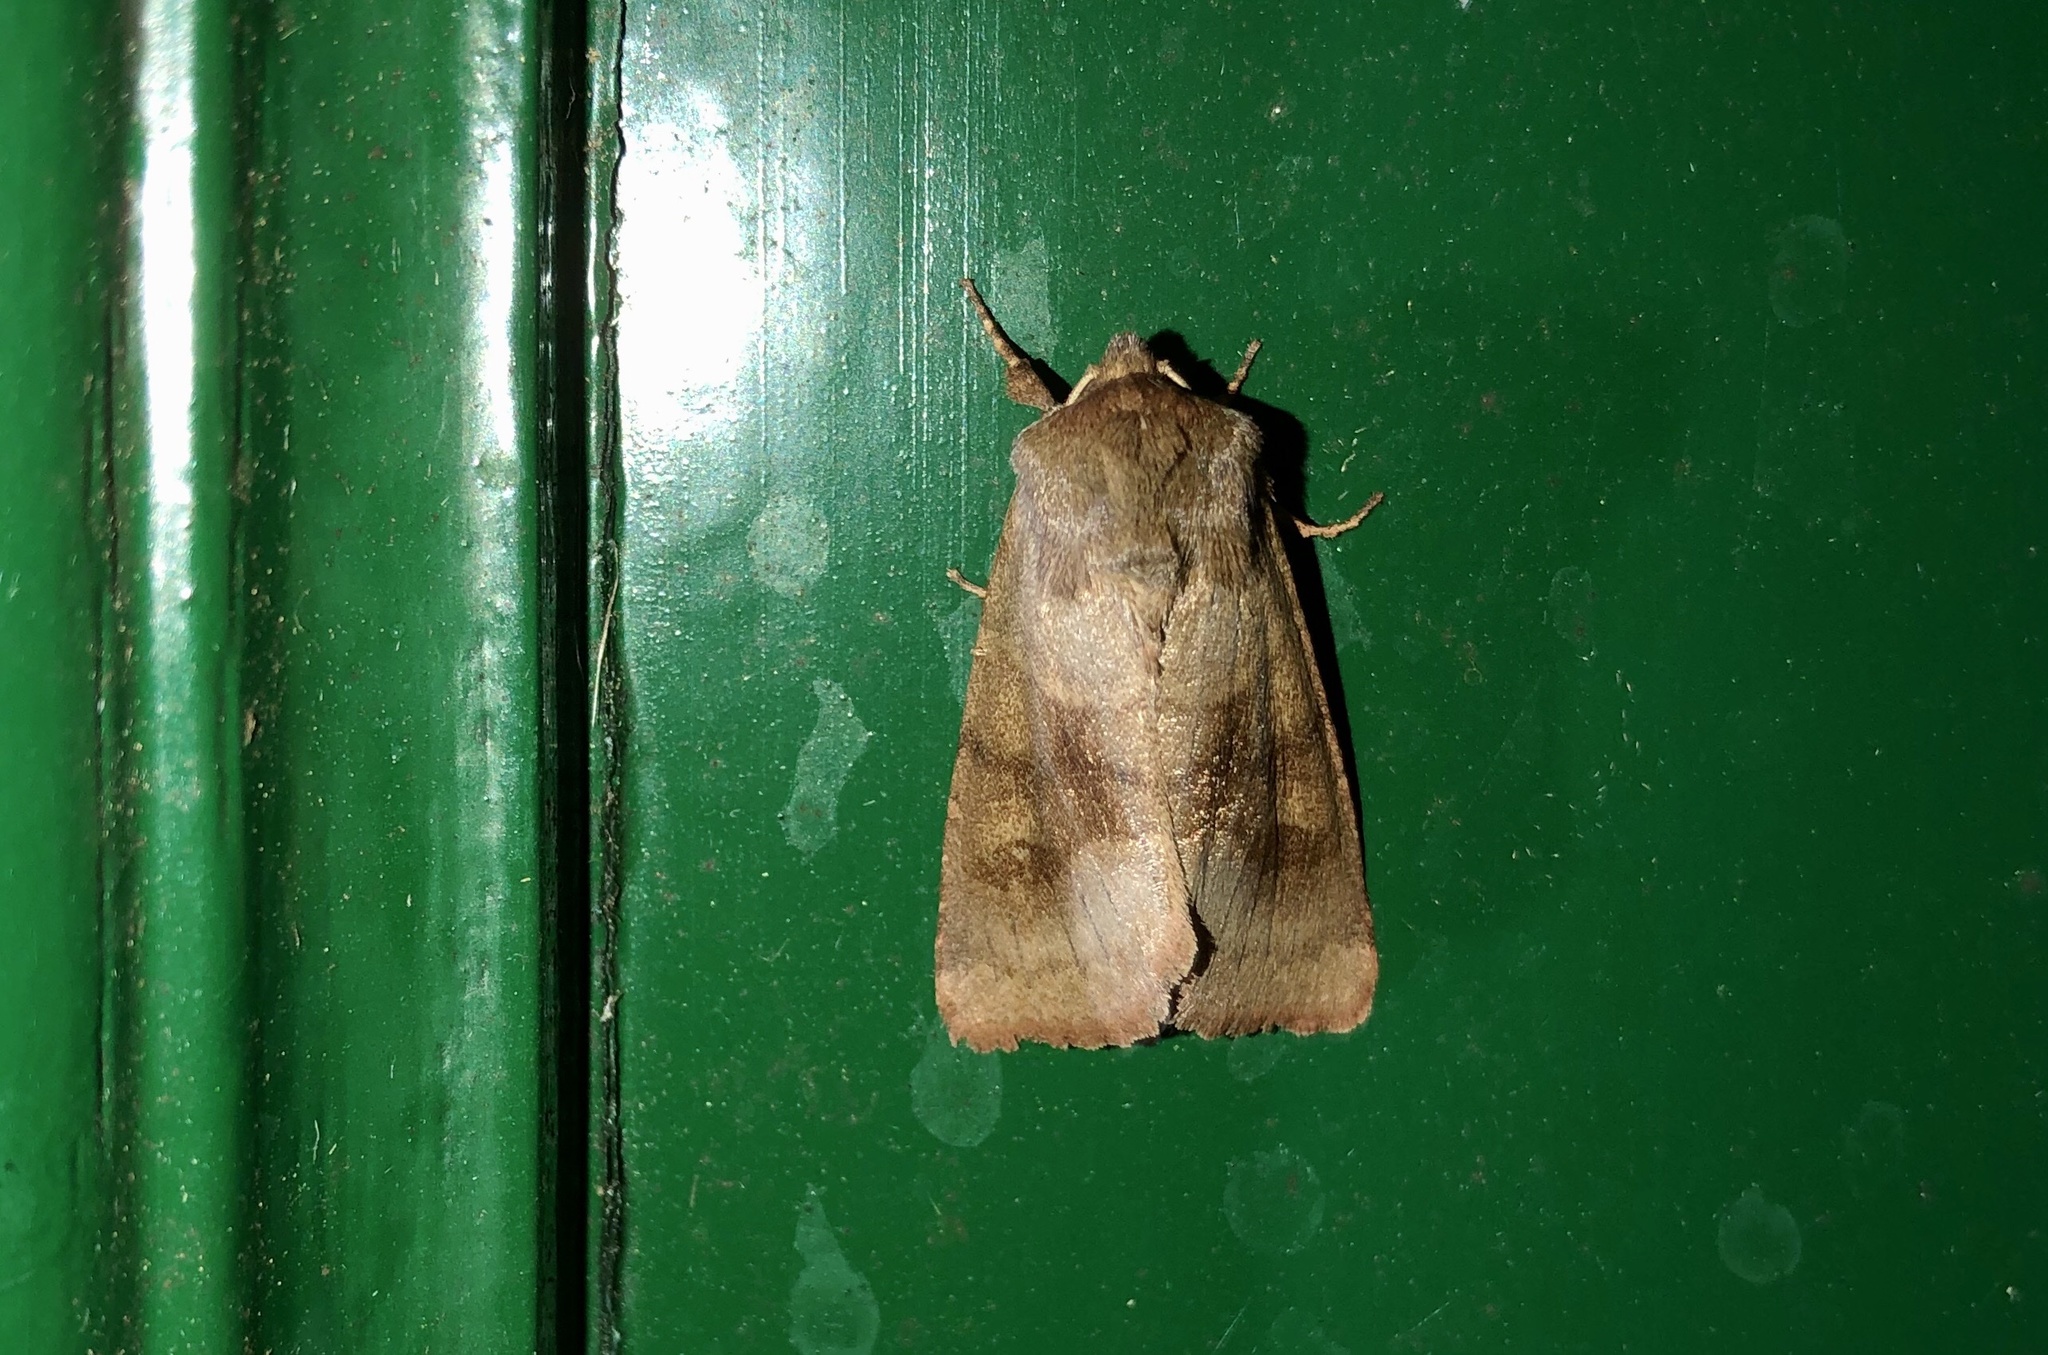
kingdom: Animalia
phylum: Arthropoda
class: Insecta
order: Lepidoptera
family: Noctuidae
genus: Nephelodes
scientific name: Nephelodes minians
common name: Bronzed cutworm
